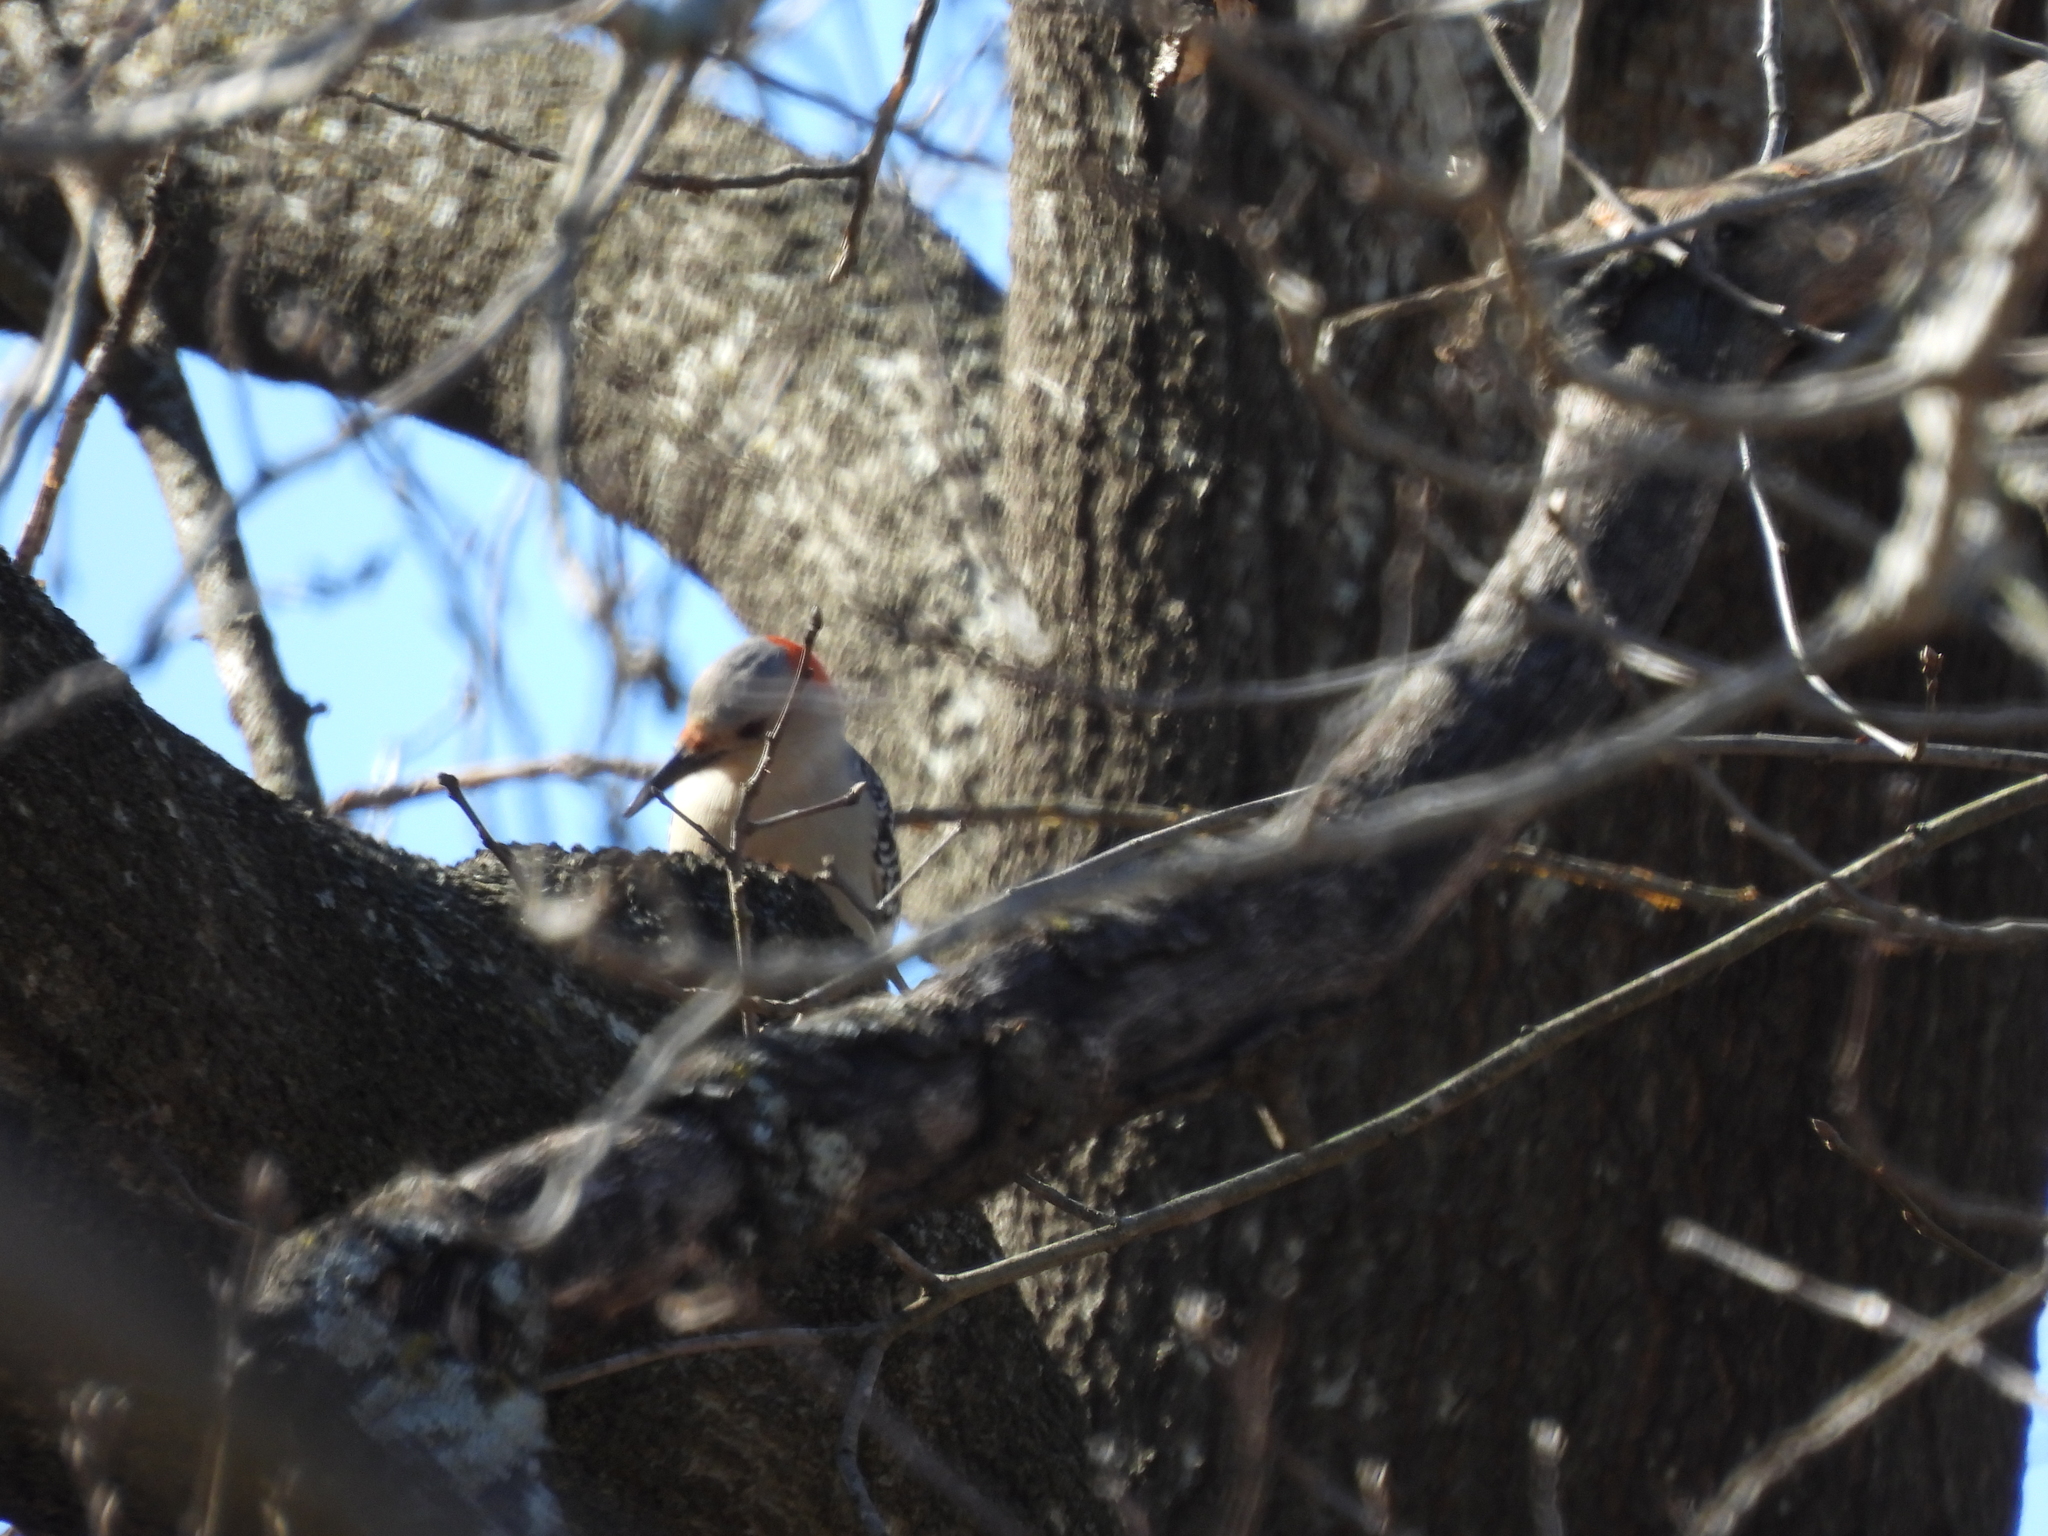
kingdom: Animalia
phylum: Chordata
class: Aves
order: Piciformes
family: Picidae
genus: Melanerpes
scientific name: Melanerpes carolinus
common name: Red-bellied woodpecker
